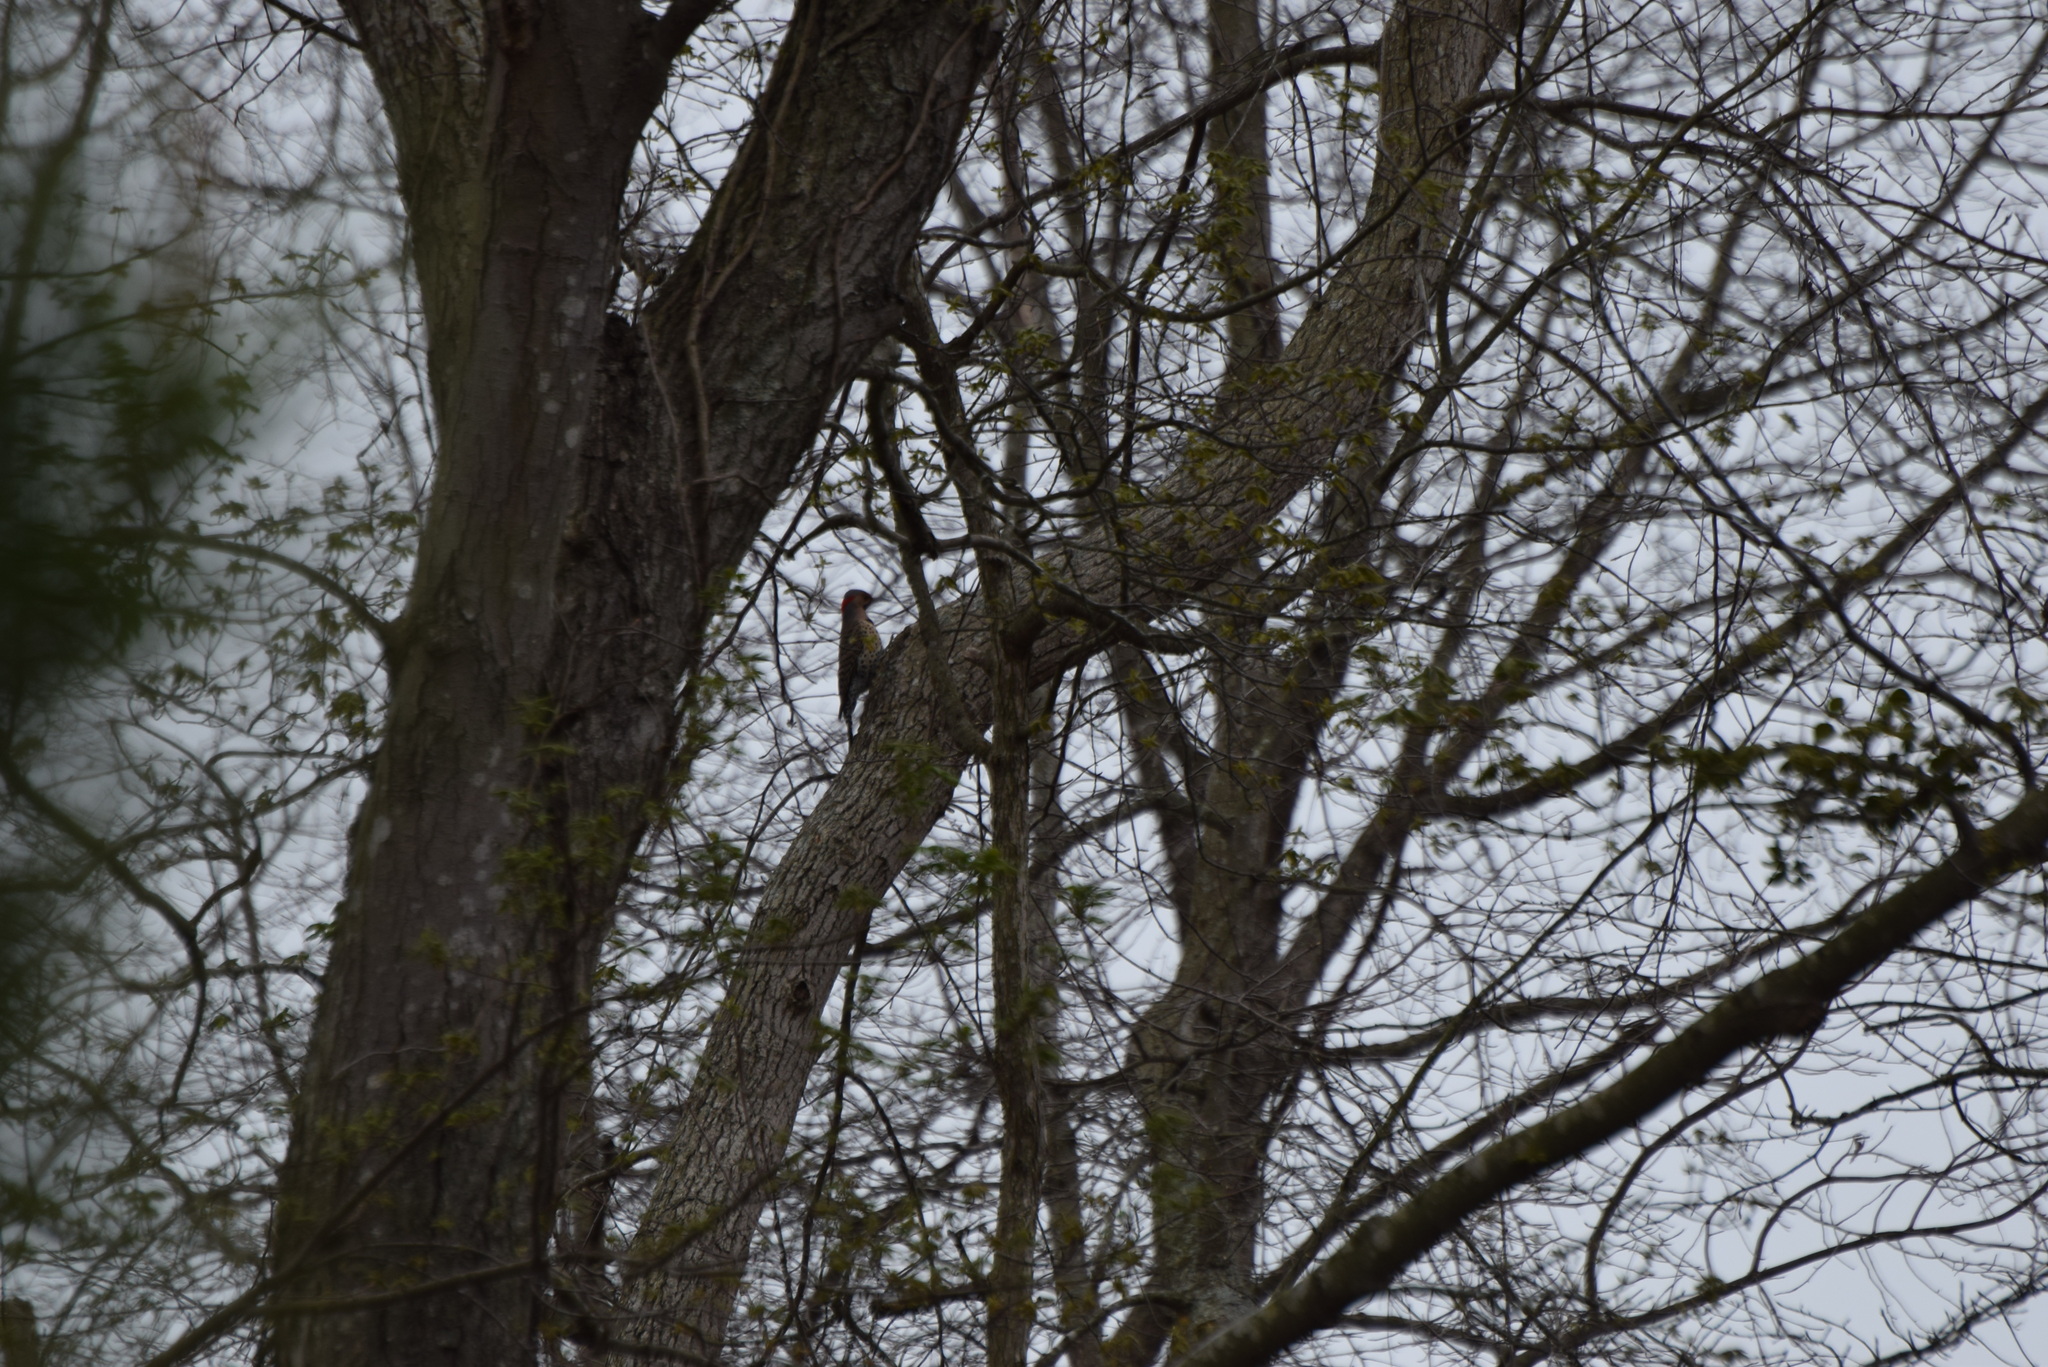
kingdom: Animalia
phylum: Chordata
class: Aves
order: Piciformes
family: Picidae
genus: Colaptes
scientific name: Colaptes auratus
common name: Northern flicker
